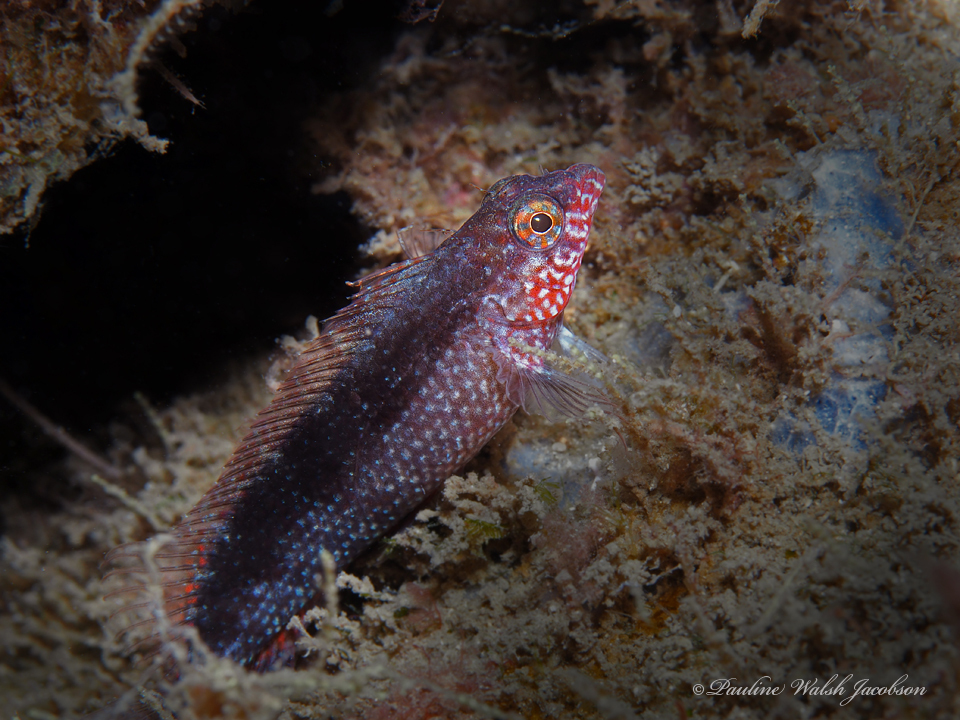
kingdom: Animalia
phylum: Chordata
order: Perciformes
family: Labrisomidae
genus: Malacoctenus
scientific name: Malacoctenus macropus
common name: Rosy blenny
